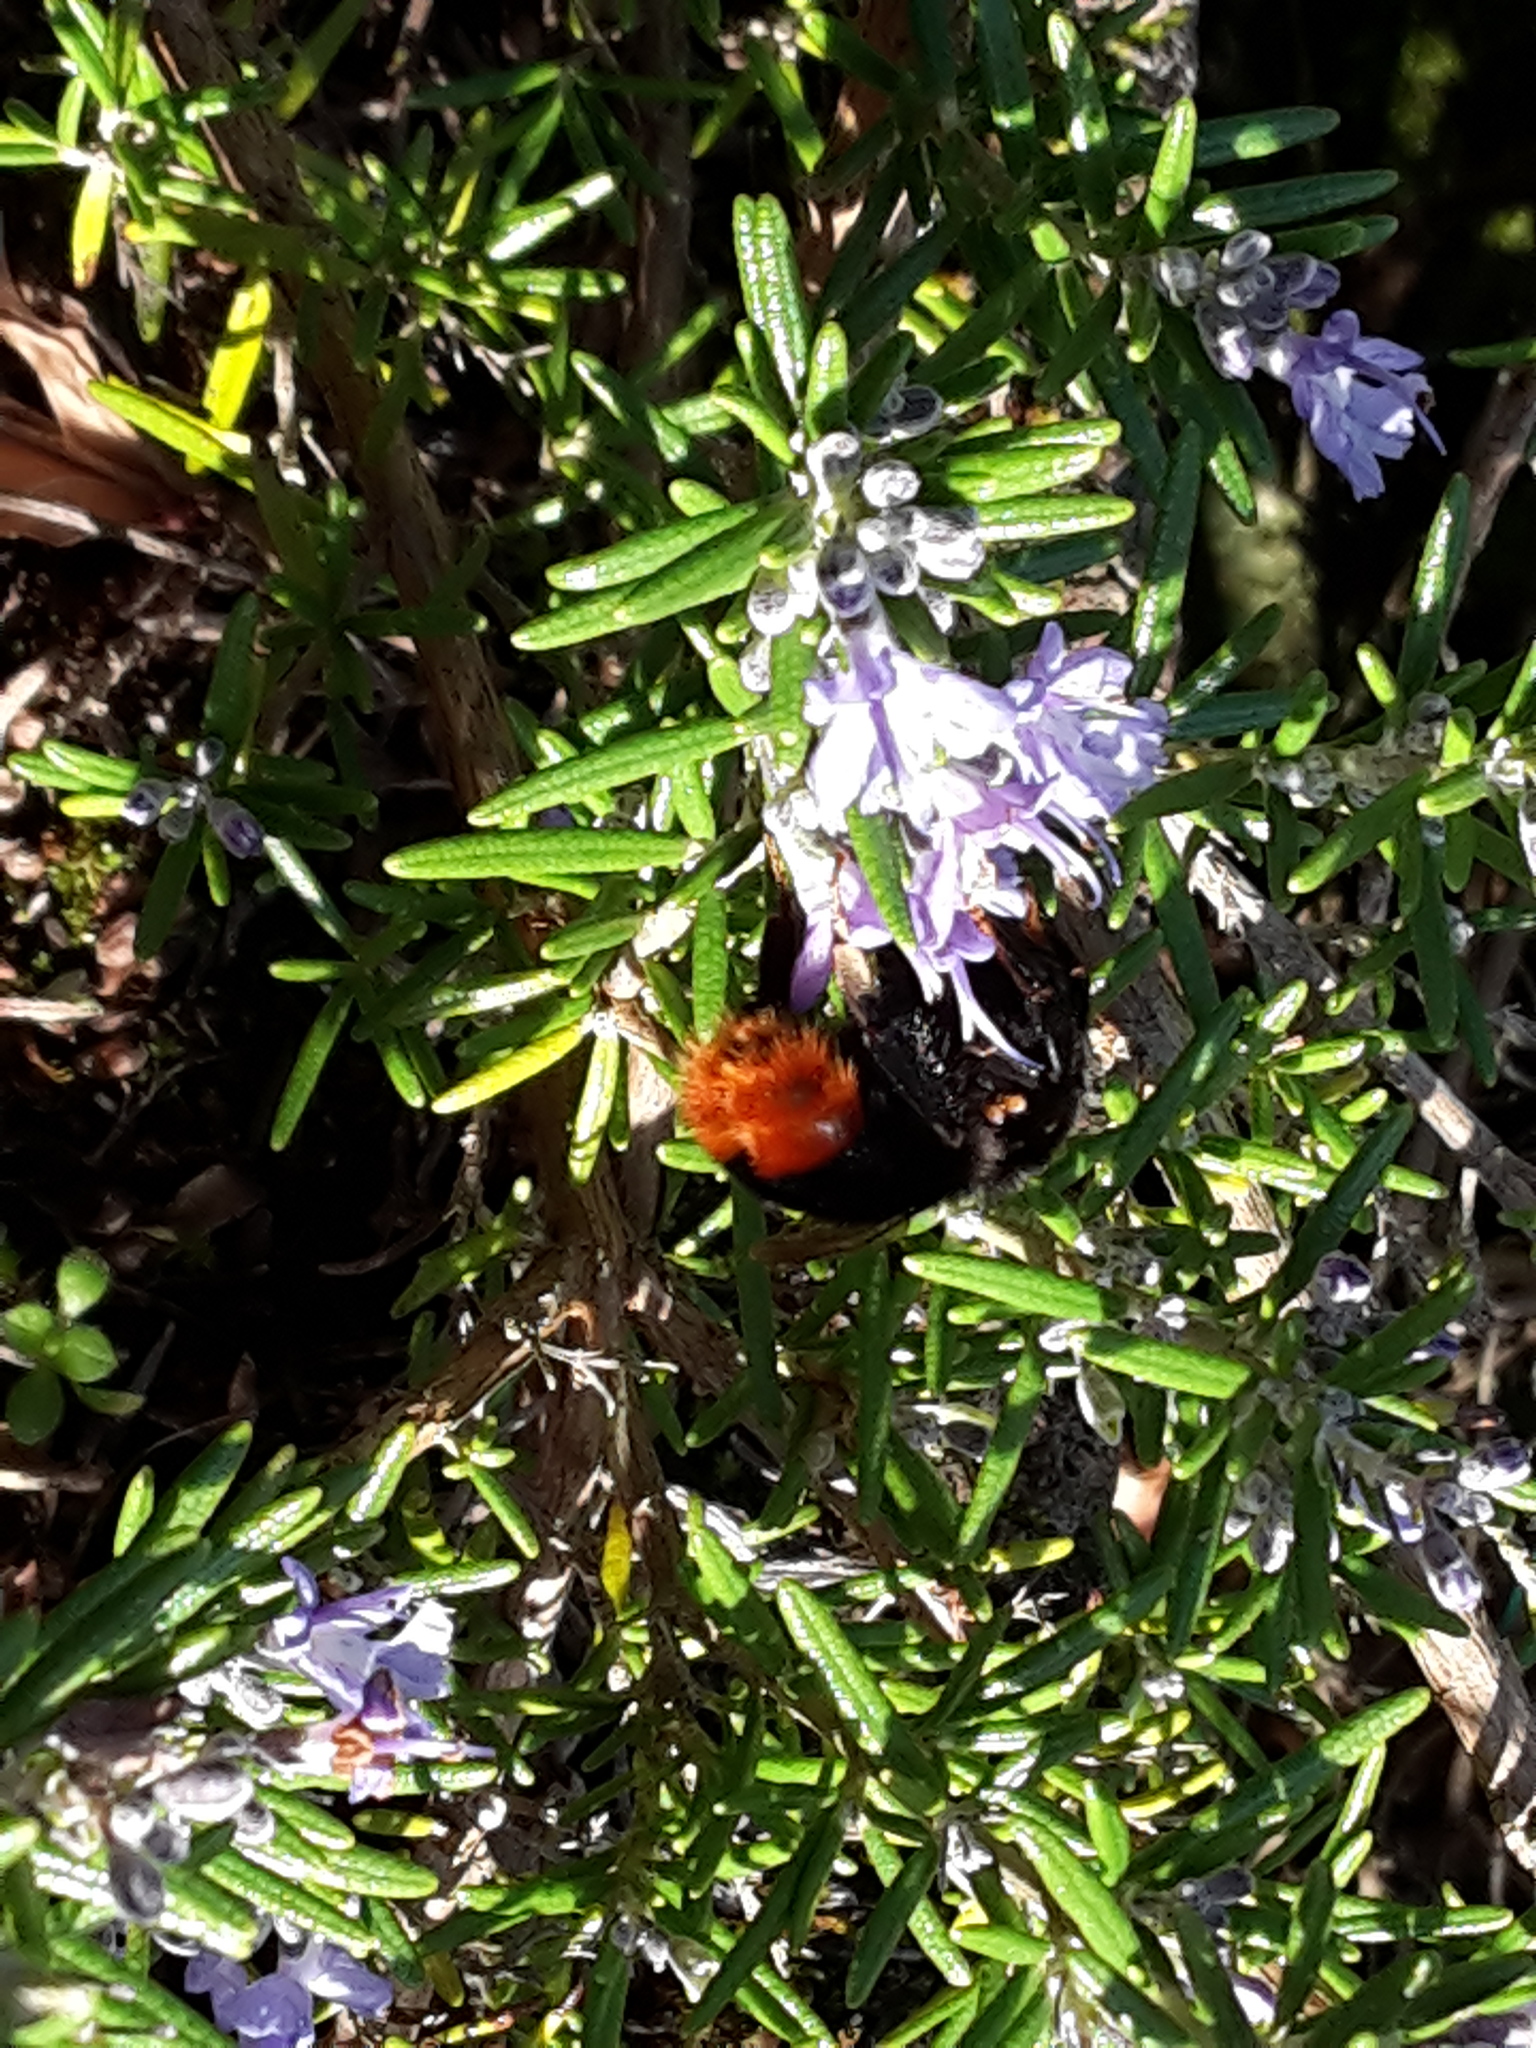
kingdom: Animalia
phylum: Arthropoda
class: Insecta
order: Hymenoptera
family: Apidae
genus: Bombus
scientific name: Bombus lapidarius
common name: Large red-tailed humble-bee
